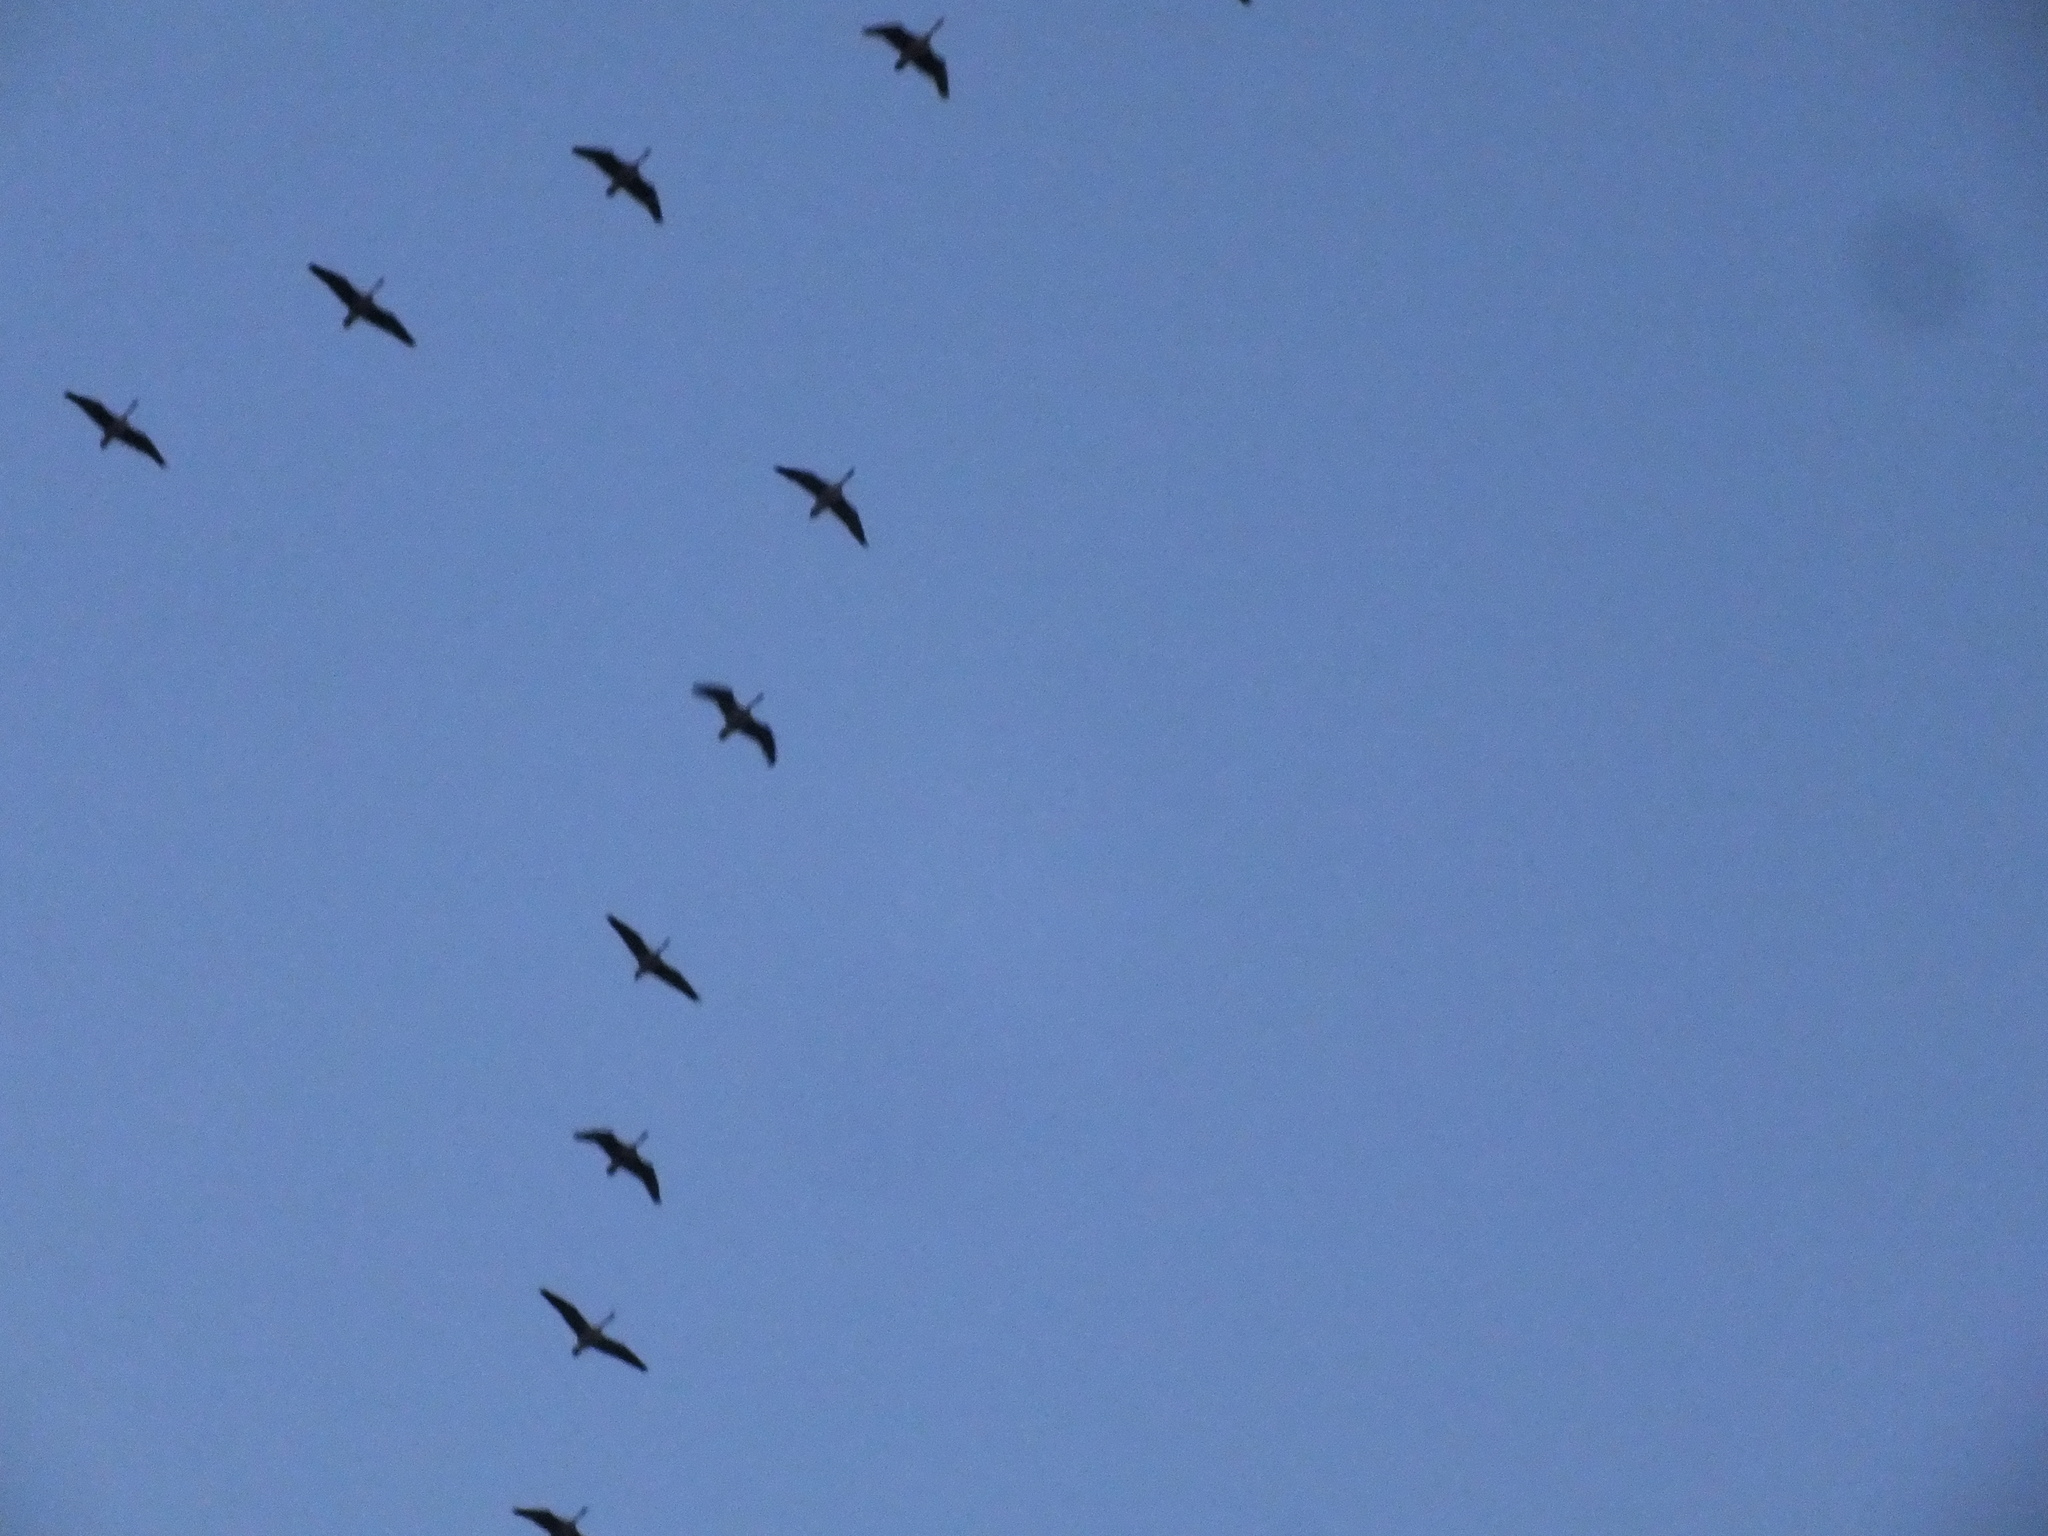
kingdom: Animalia
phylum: Chordata
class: Aves
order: Anseriformes
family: Anatidae
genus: Branta
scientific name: Branta canadensis
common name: Canada goose
